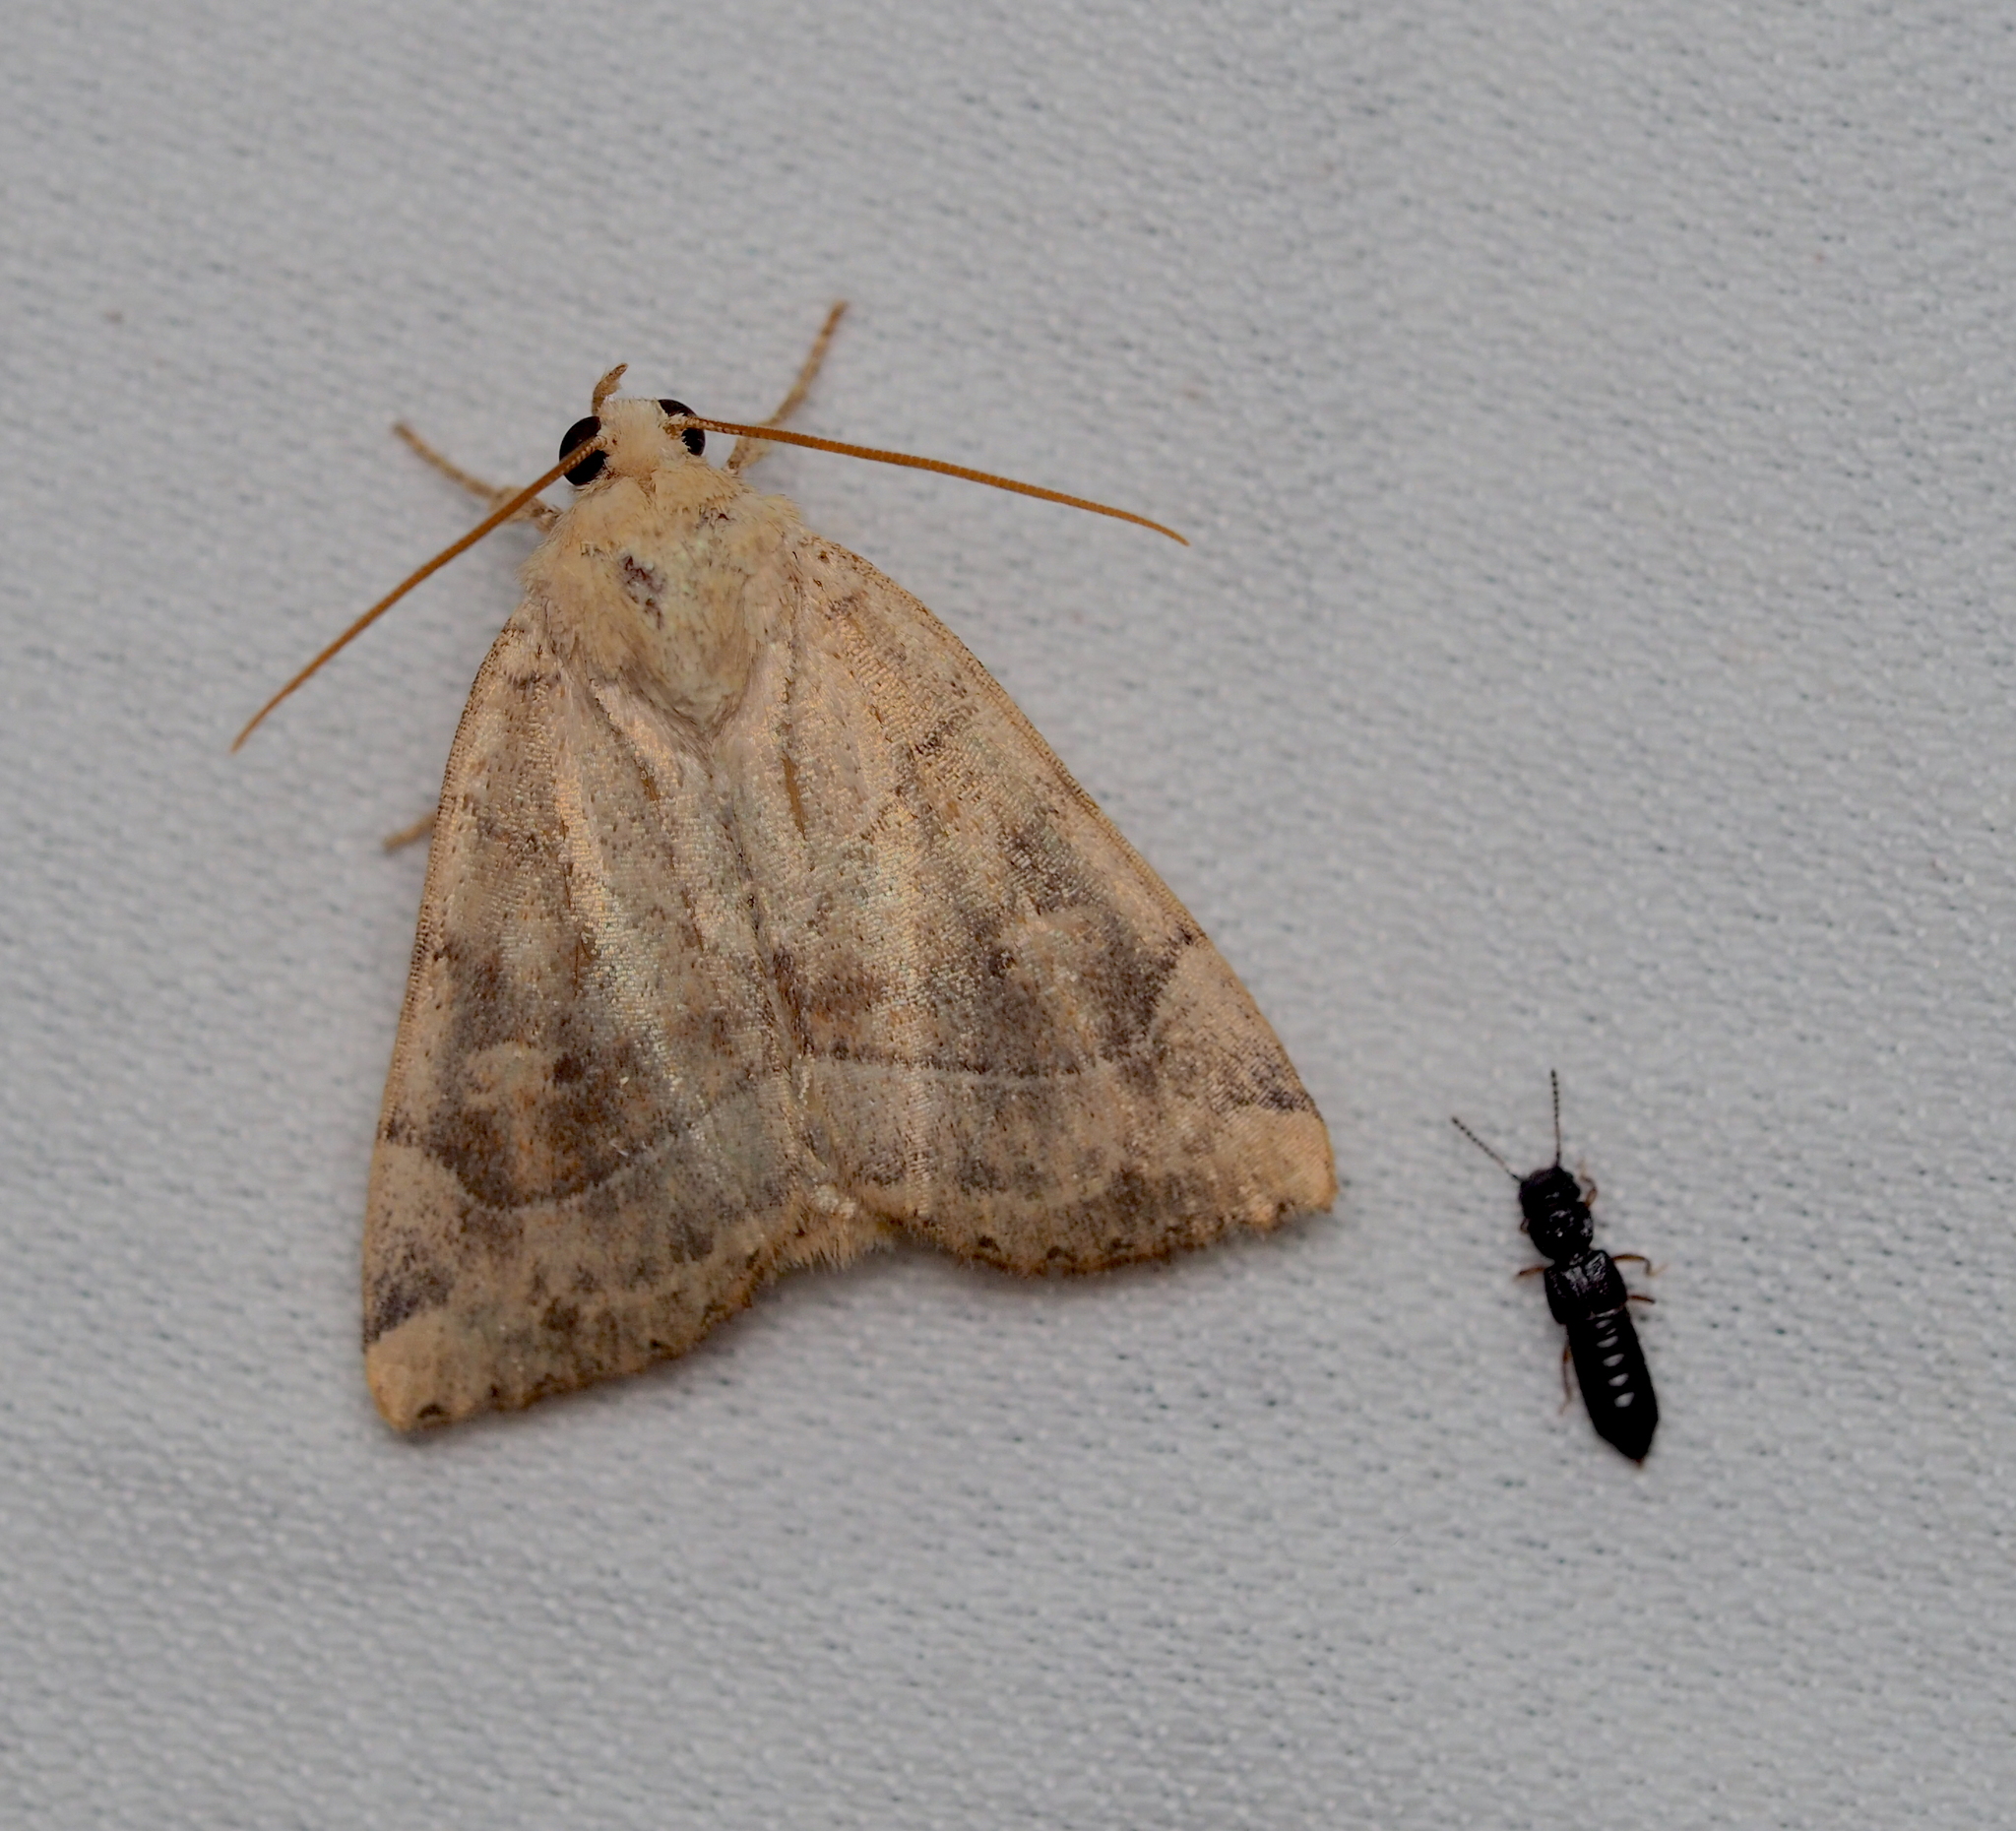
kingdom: Animalia
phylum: Arthropoda
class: Insecta
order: Lepidoptera
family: Noctuidae
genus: Cosmia
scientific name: Cosmia trapezina
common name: Dun-bar
